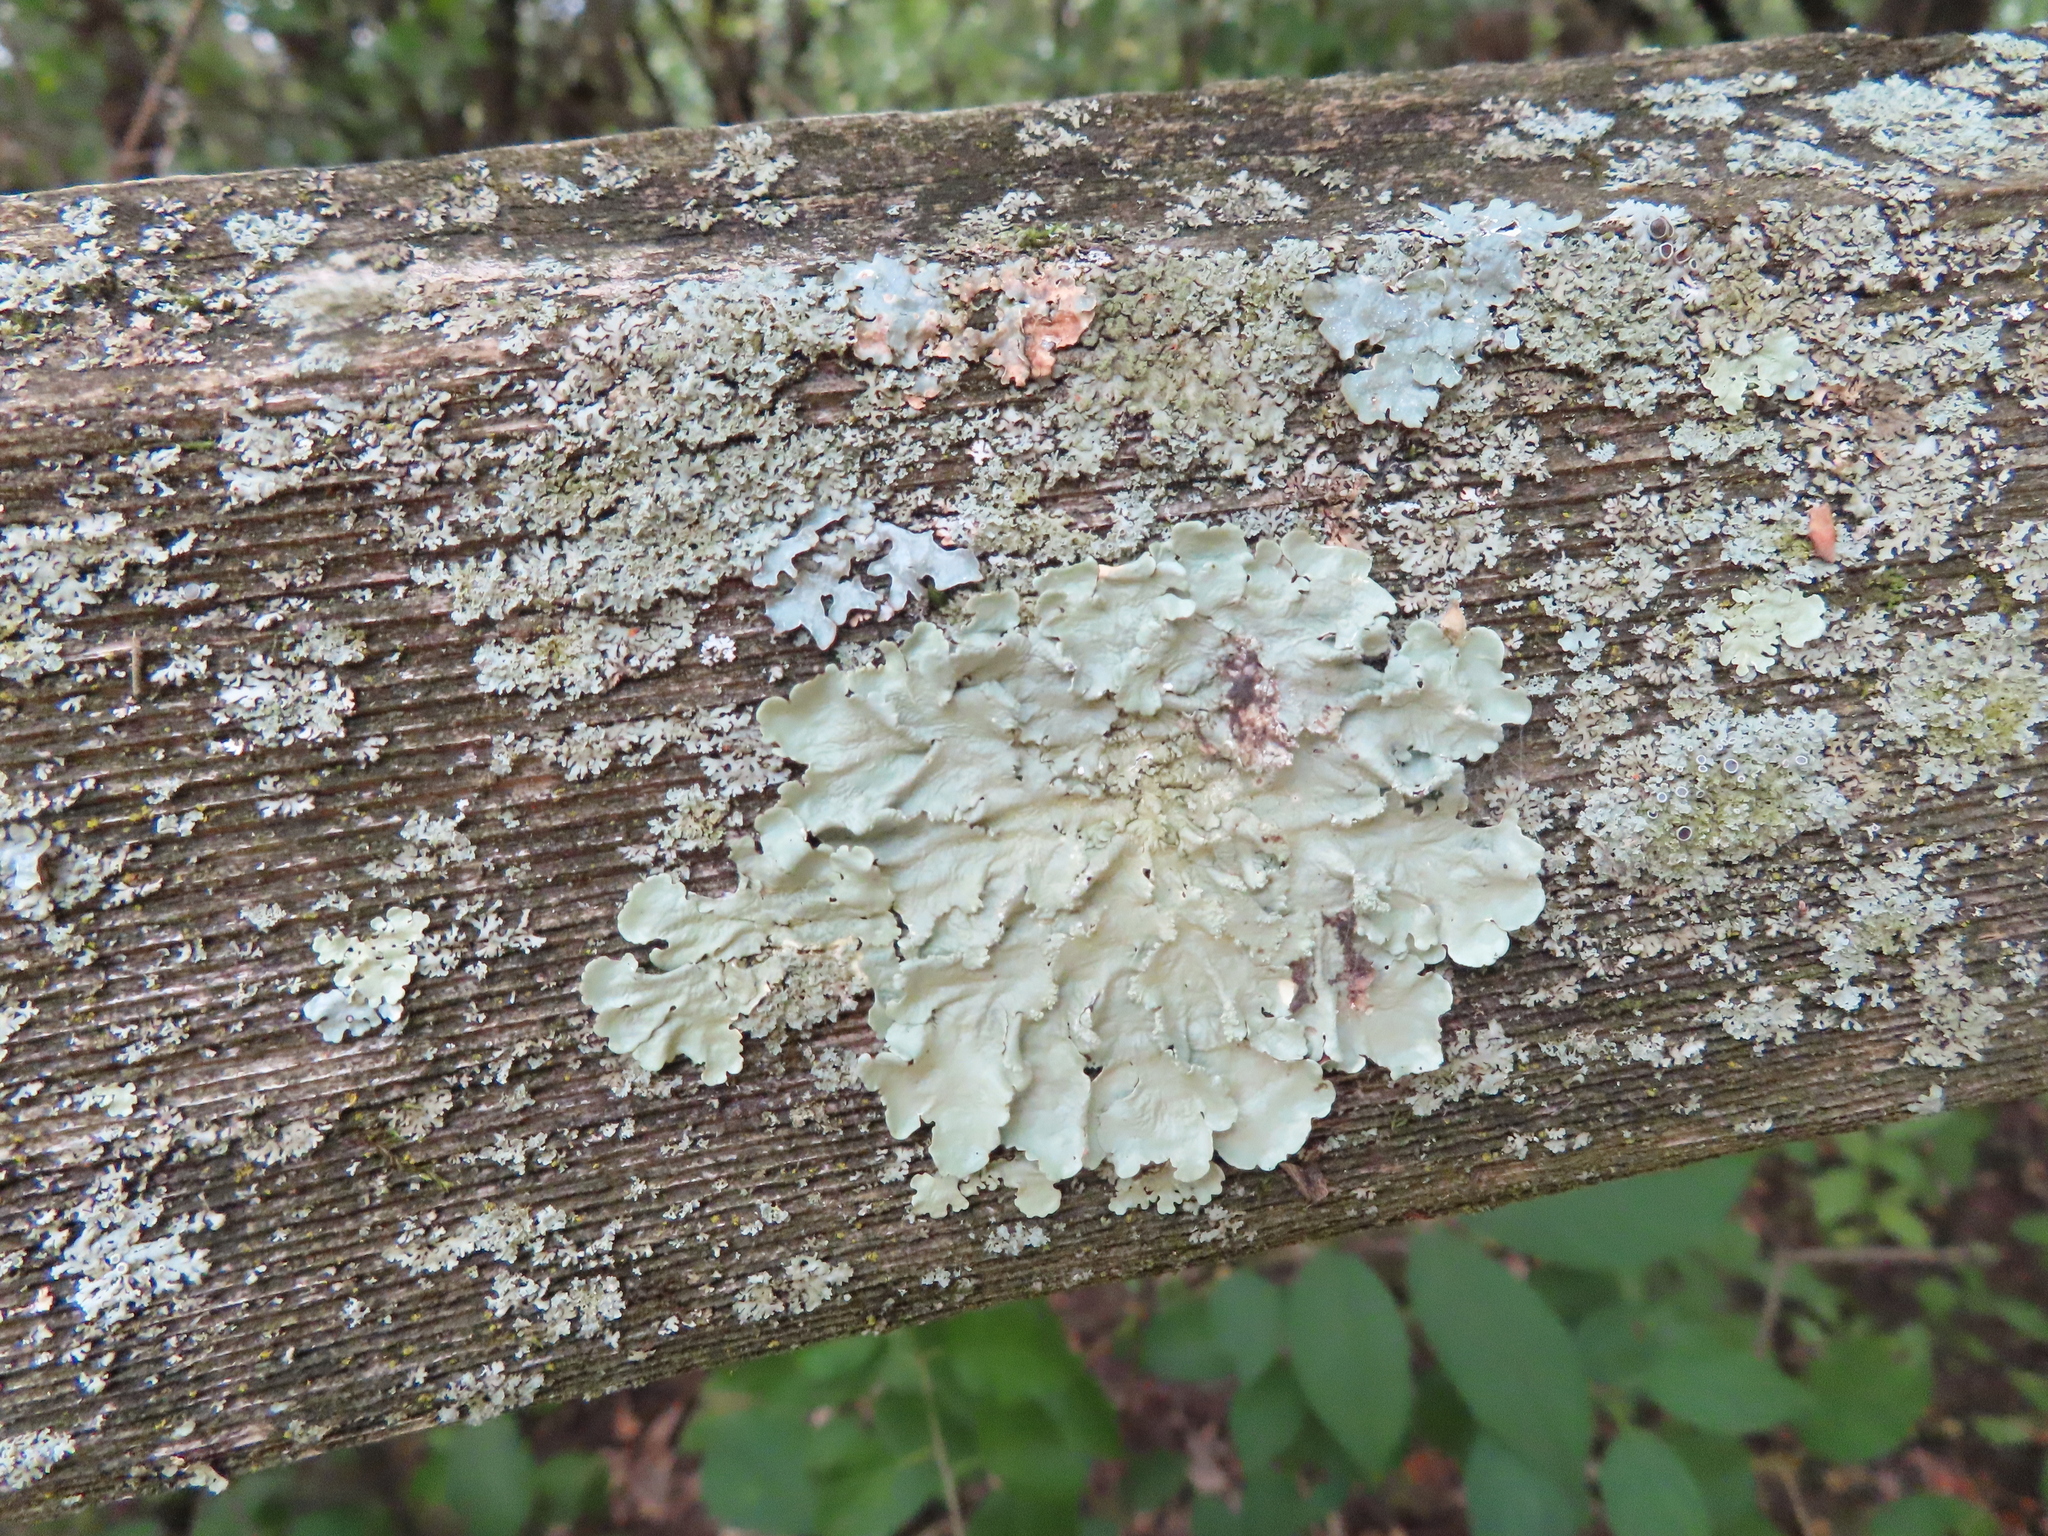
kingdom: Fungi
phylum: Ascomycota
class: Lecanoromycetes
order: Lecanorales
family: Parmeliaceae
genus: Flavoparmelia
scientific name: Flavoparmelia caperata
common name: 40-mile per hour lichen
